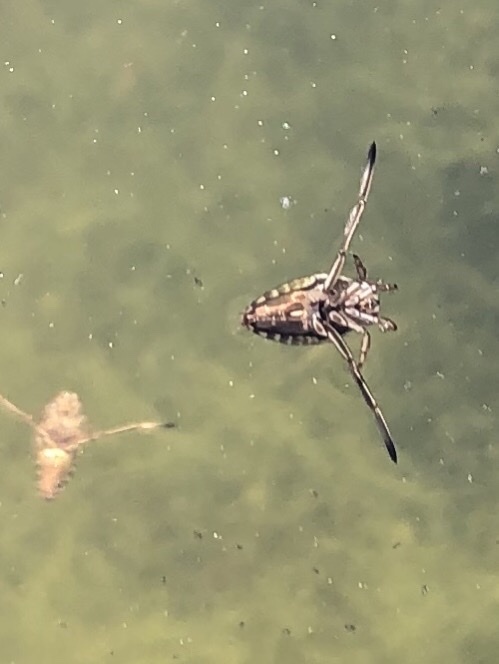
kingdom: Animalia
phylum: Arthropoda
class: Insecta
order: Hemiptera
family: Notonectidae
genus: Notonecta
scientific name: Notonecta
